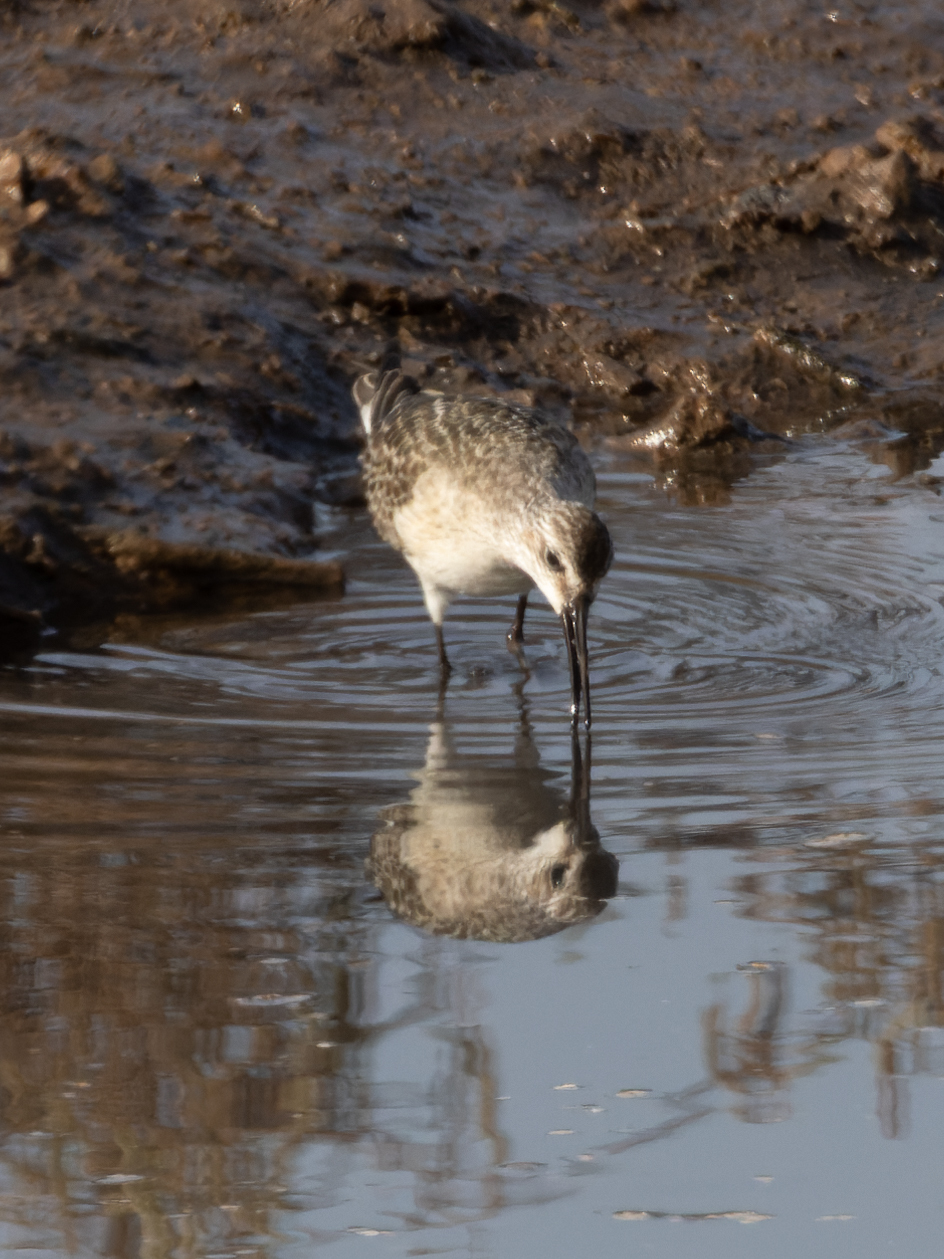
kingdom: Animalia
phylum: Chordata
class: Aves
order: Charadriiformes
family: Scolopacidae
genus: Calidris
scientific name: Calidris canutus
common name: Red knot
